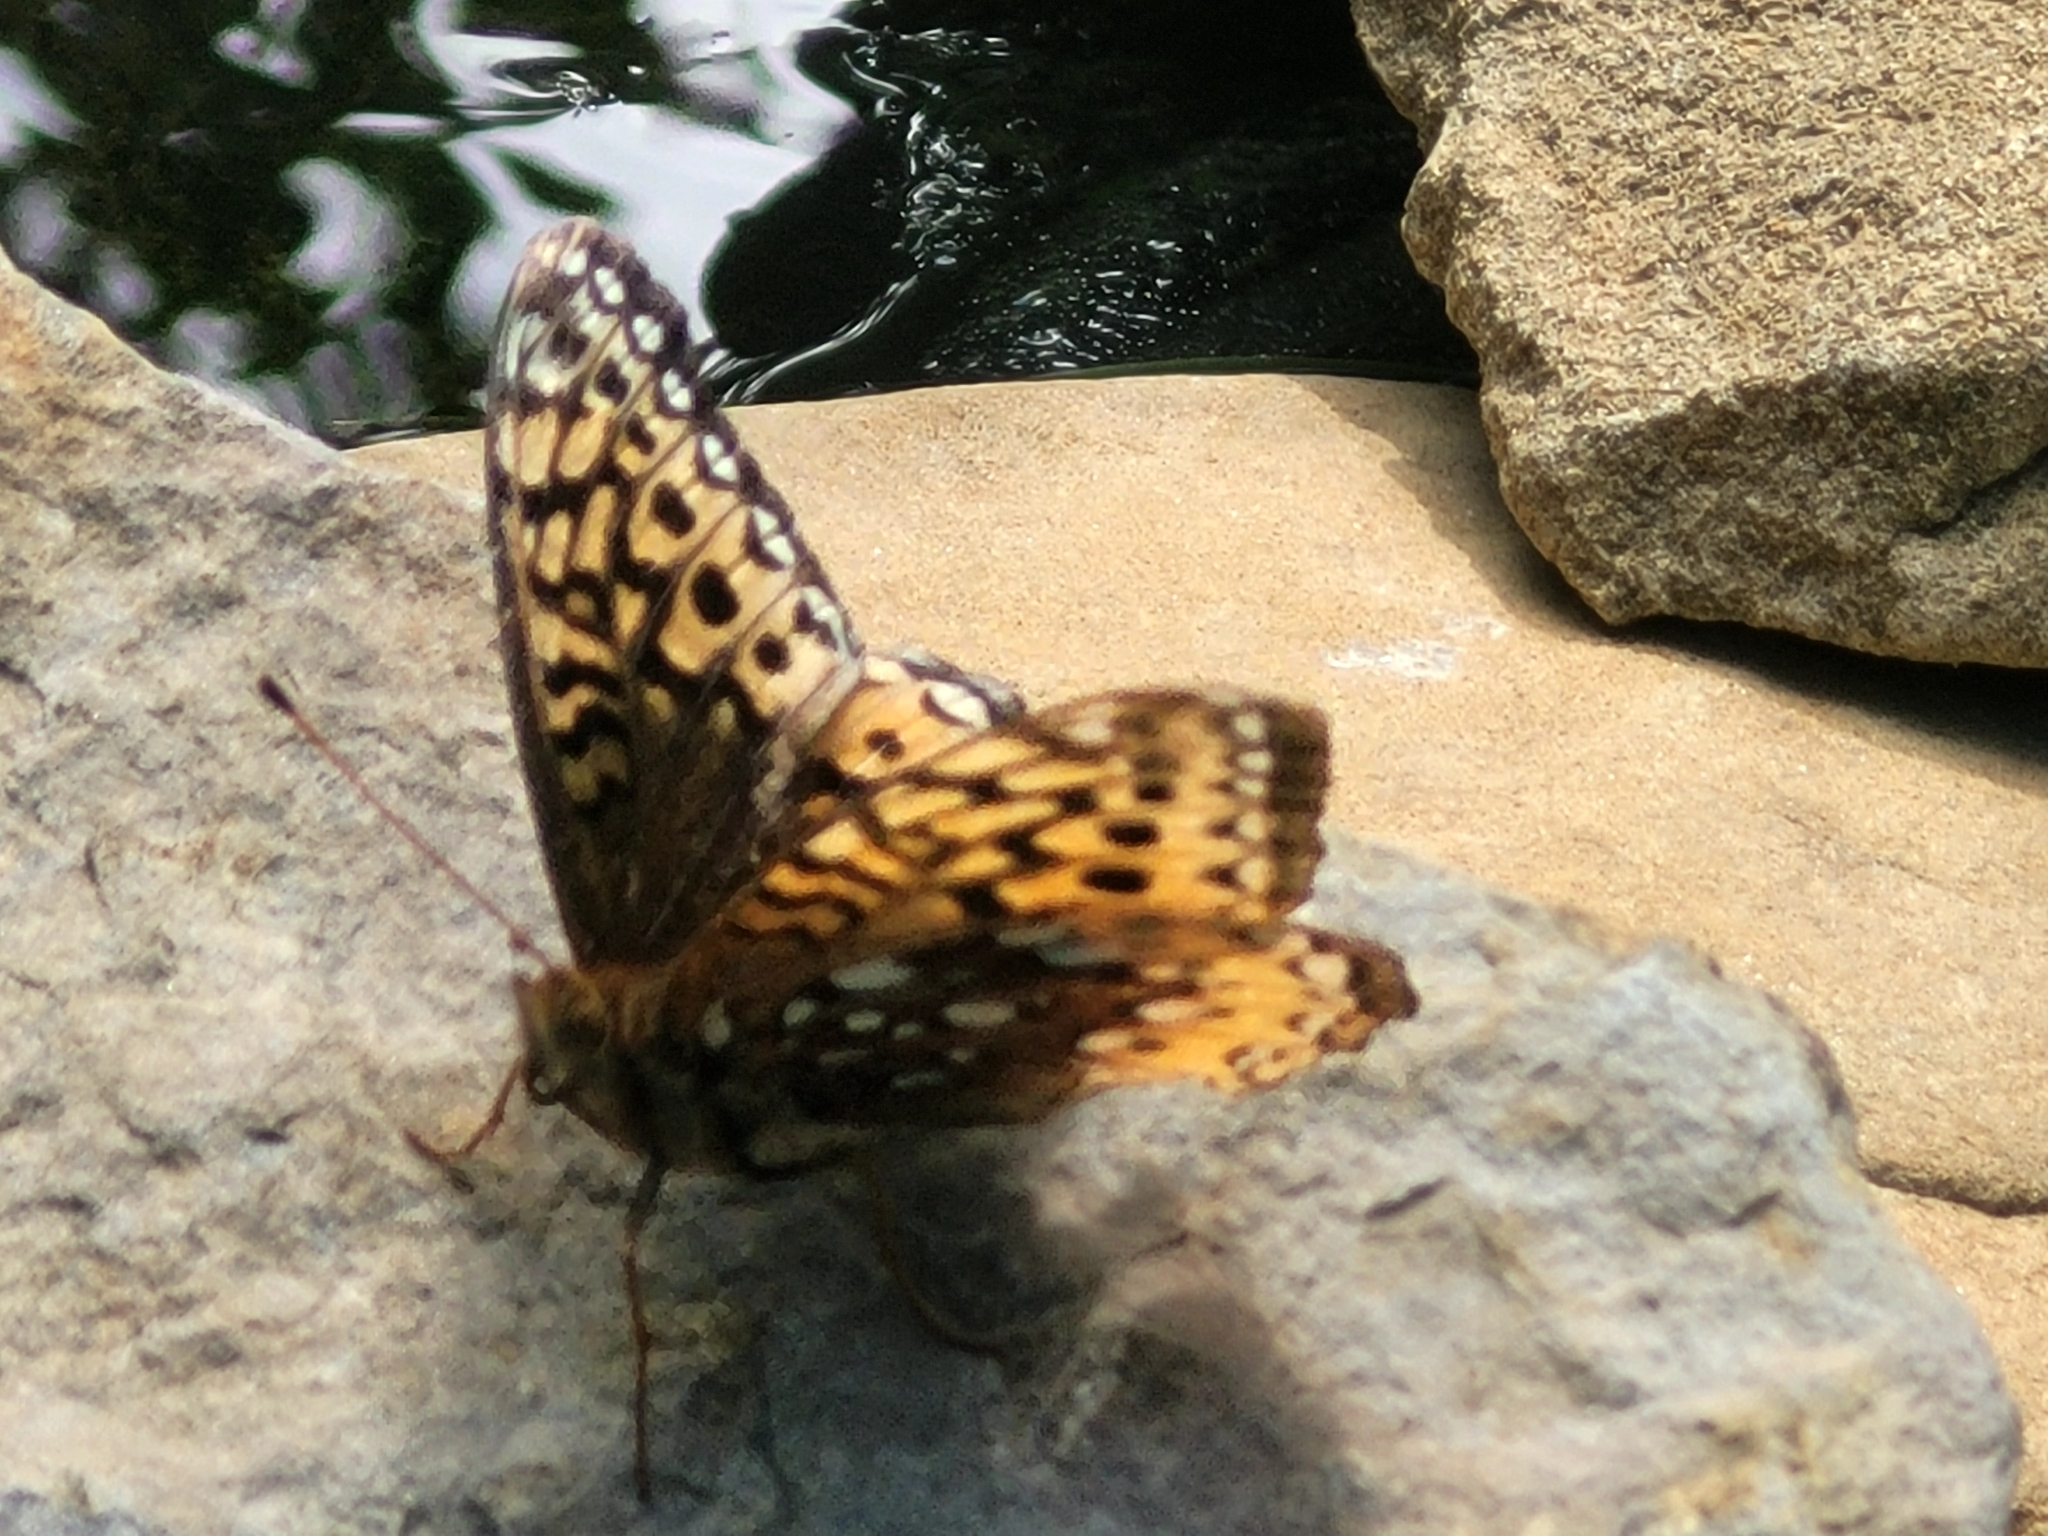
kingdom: Animalia
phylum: Arthropoda
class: Insecta
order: Lepidoptera
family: Nymphalidae
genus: Speyeria
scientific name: Speyeria cybele
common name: Great spangled fritillary
